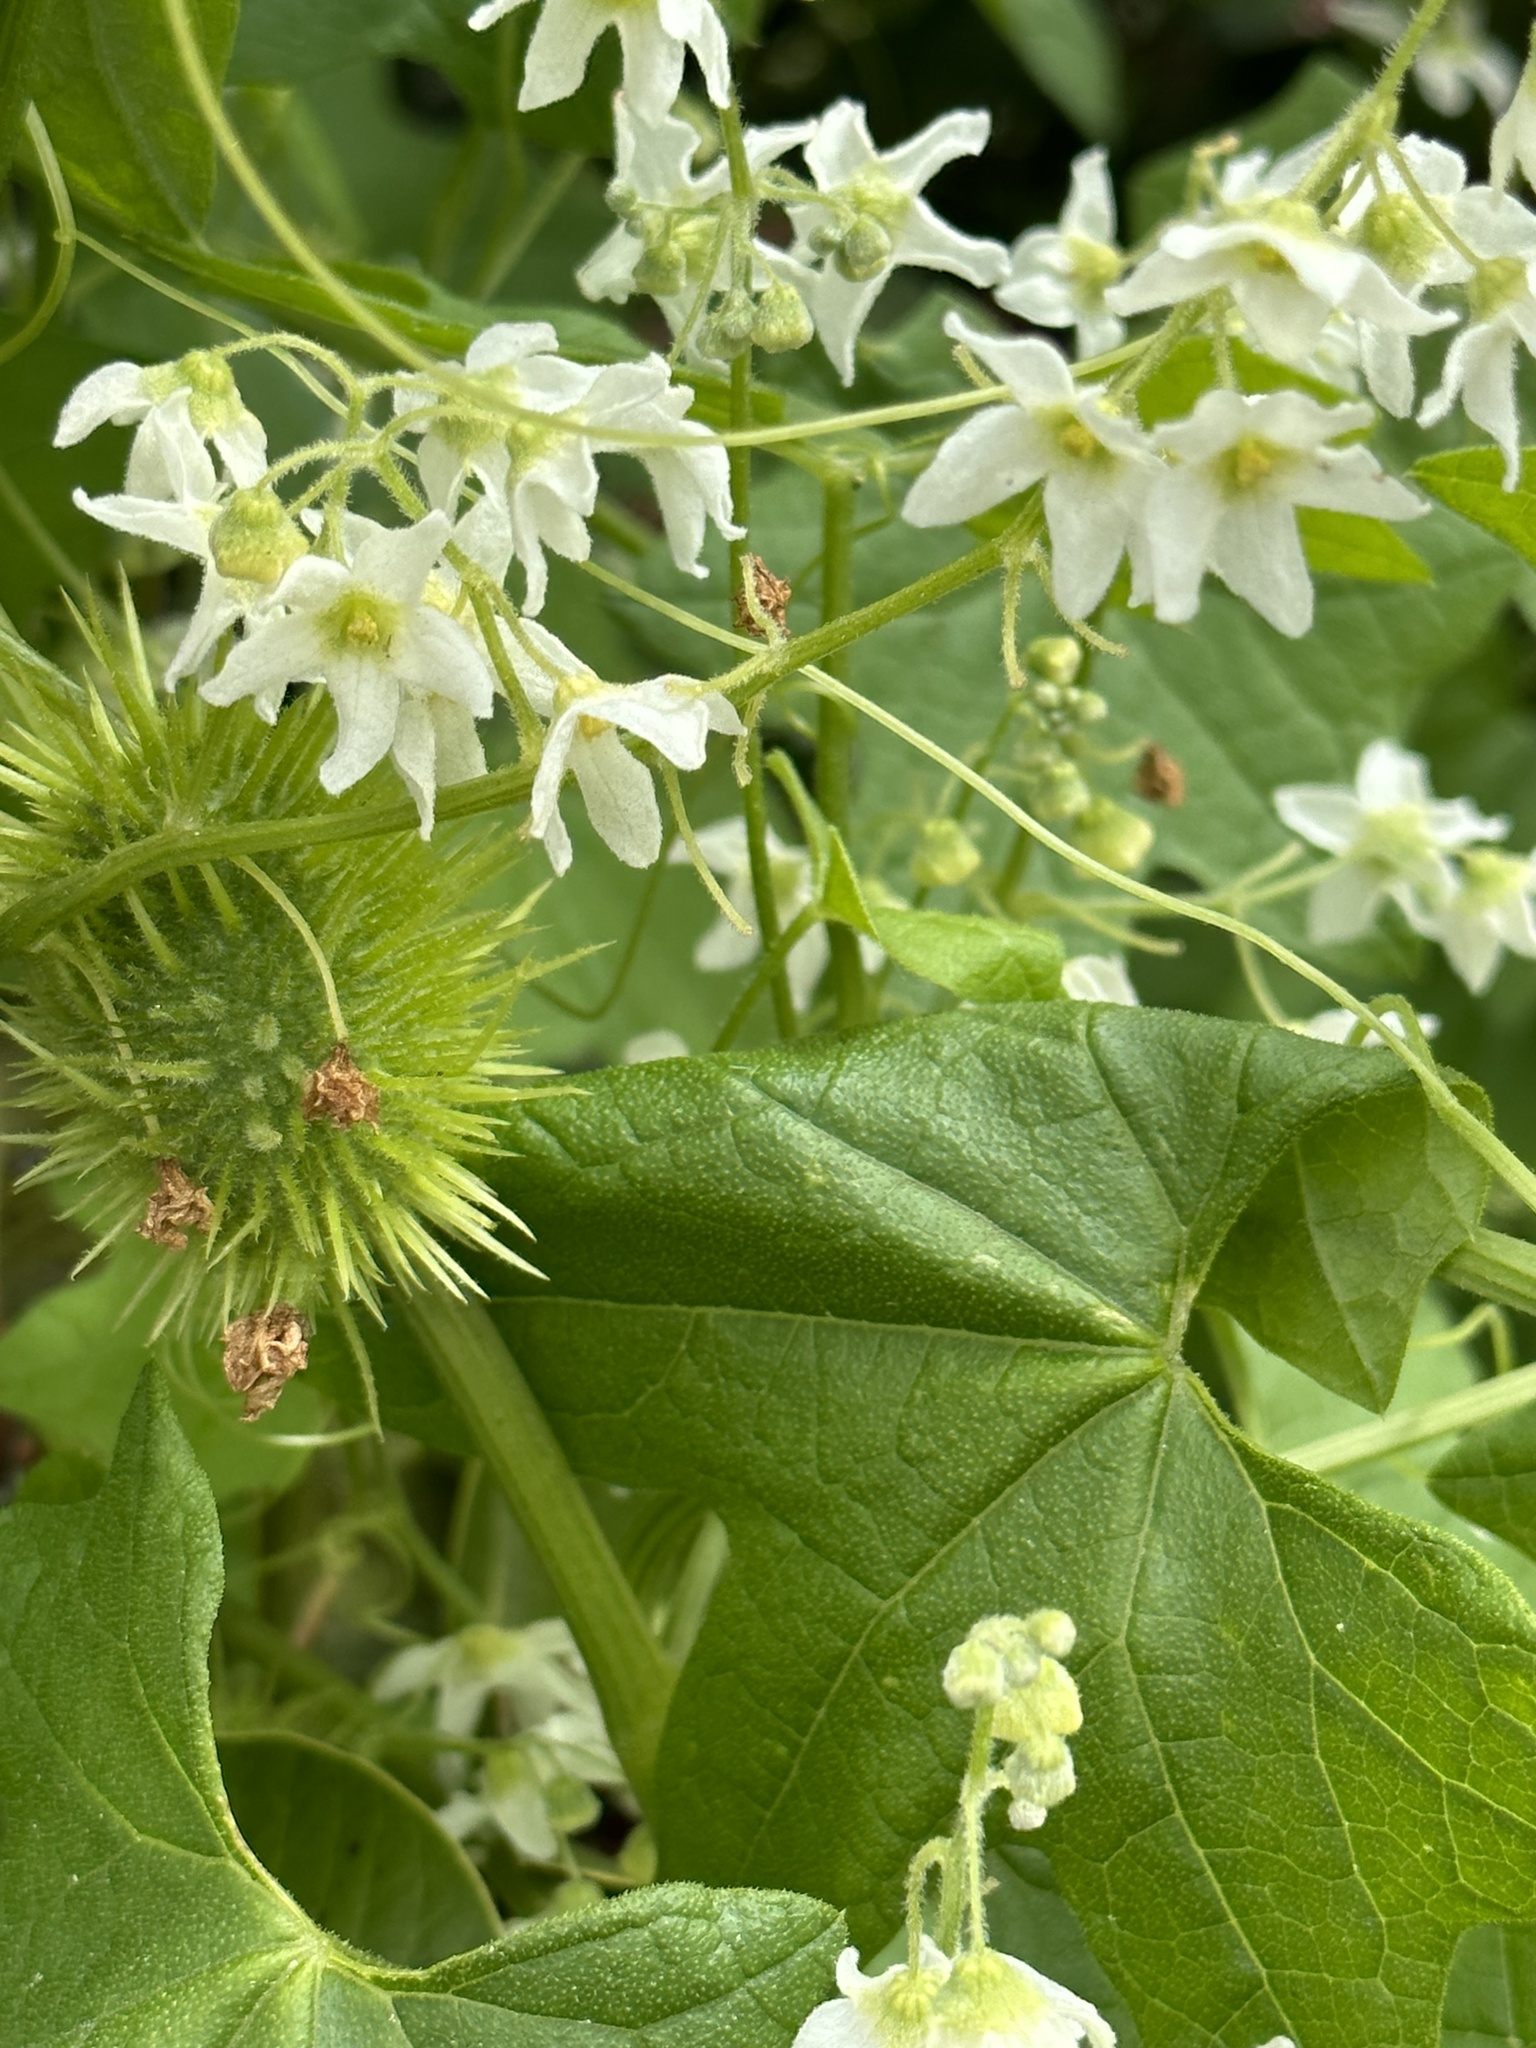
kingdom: Plantae
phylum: Tracheophyta
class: Magnoliopsida
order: Cucurbitales
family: Cucurbitaceae
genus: Marah
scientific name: Marah macrocarpa
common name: Cucamonga manroot
